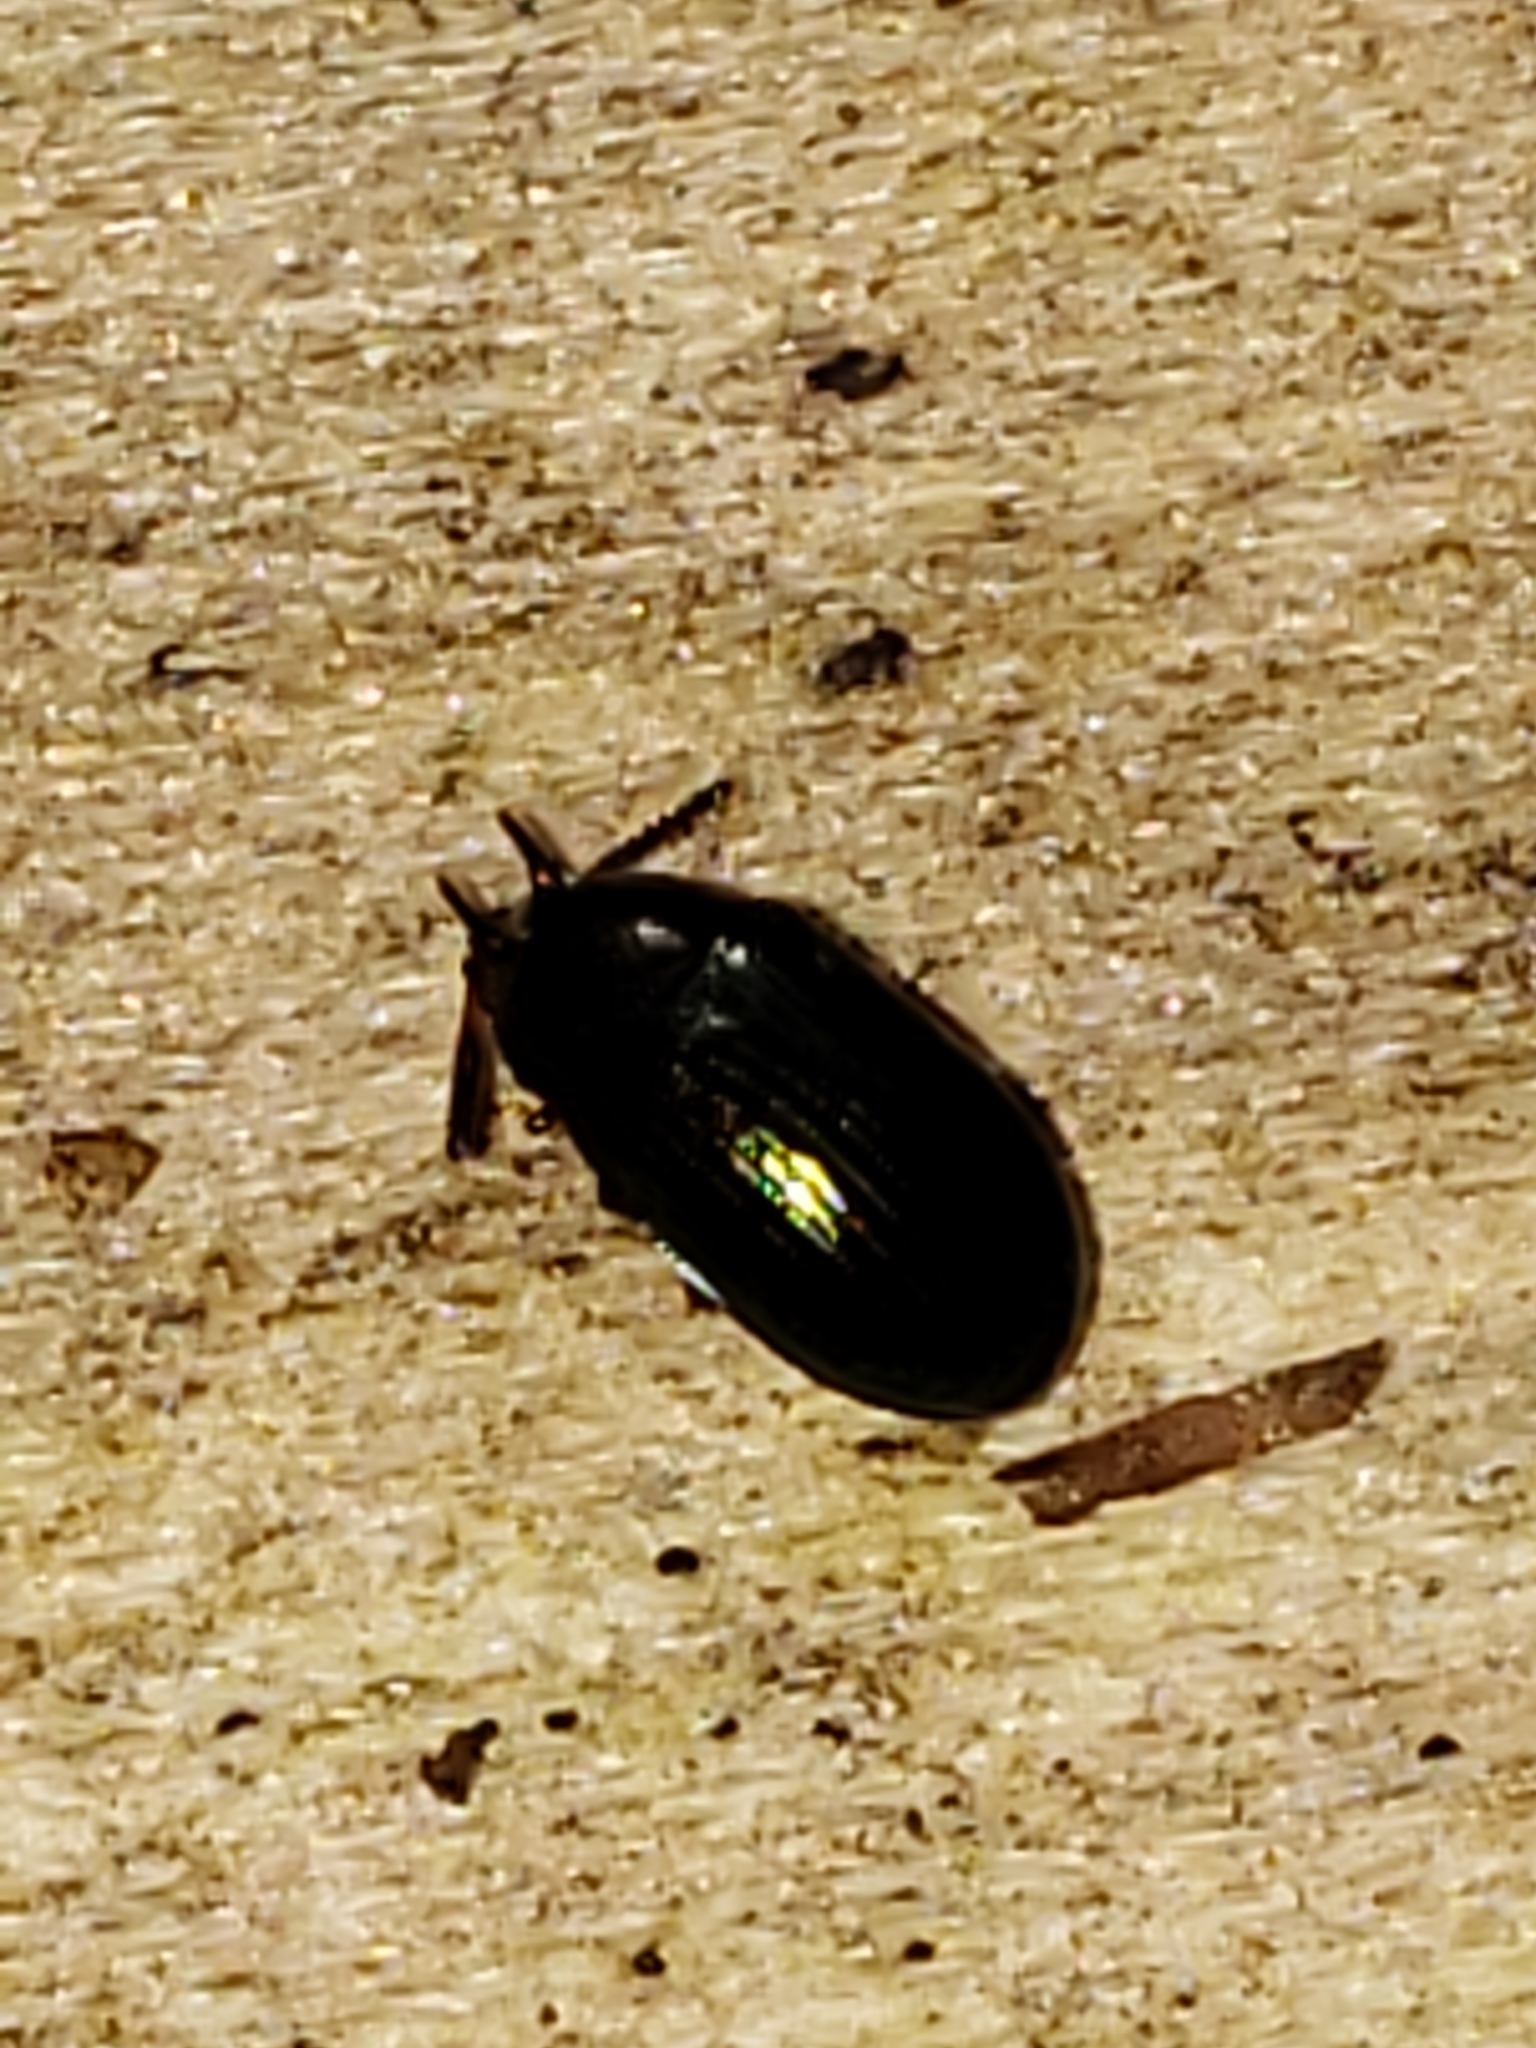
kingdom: Animalia
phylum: Arthropoda
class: Insecta
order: Coleoptera
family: Tenebrionidae
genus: Neomida
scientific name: Neomida bicornis
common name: Two-horned darkling beetle
